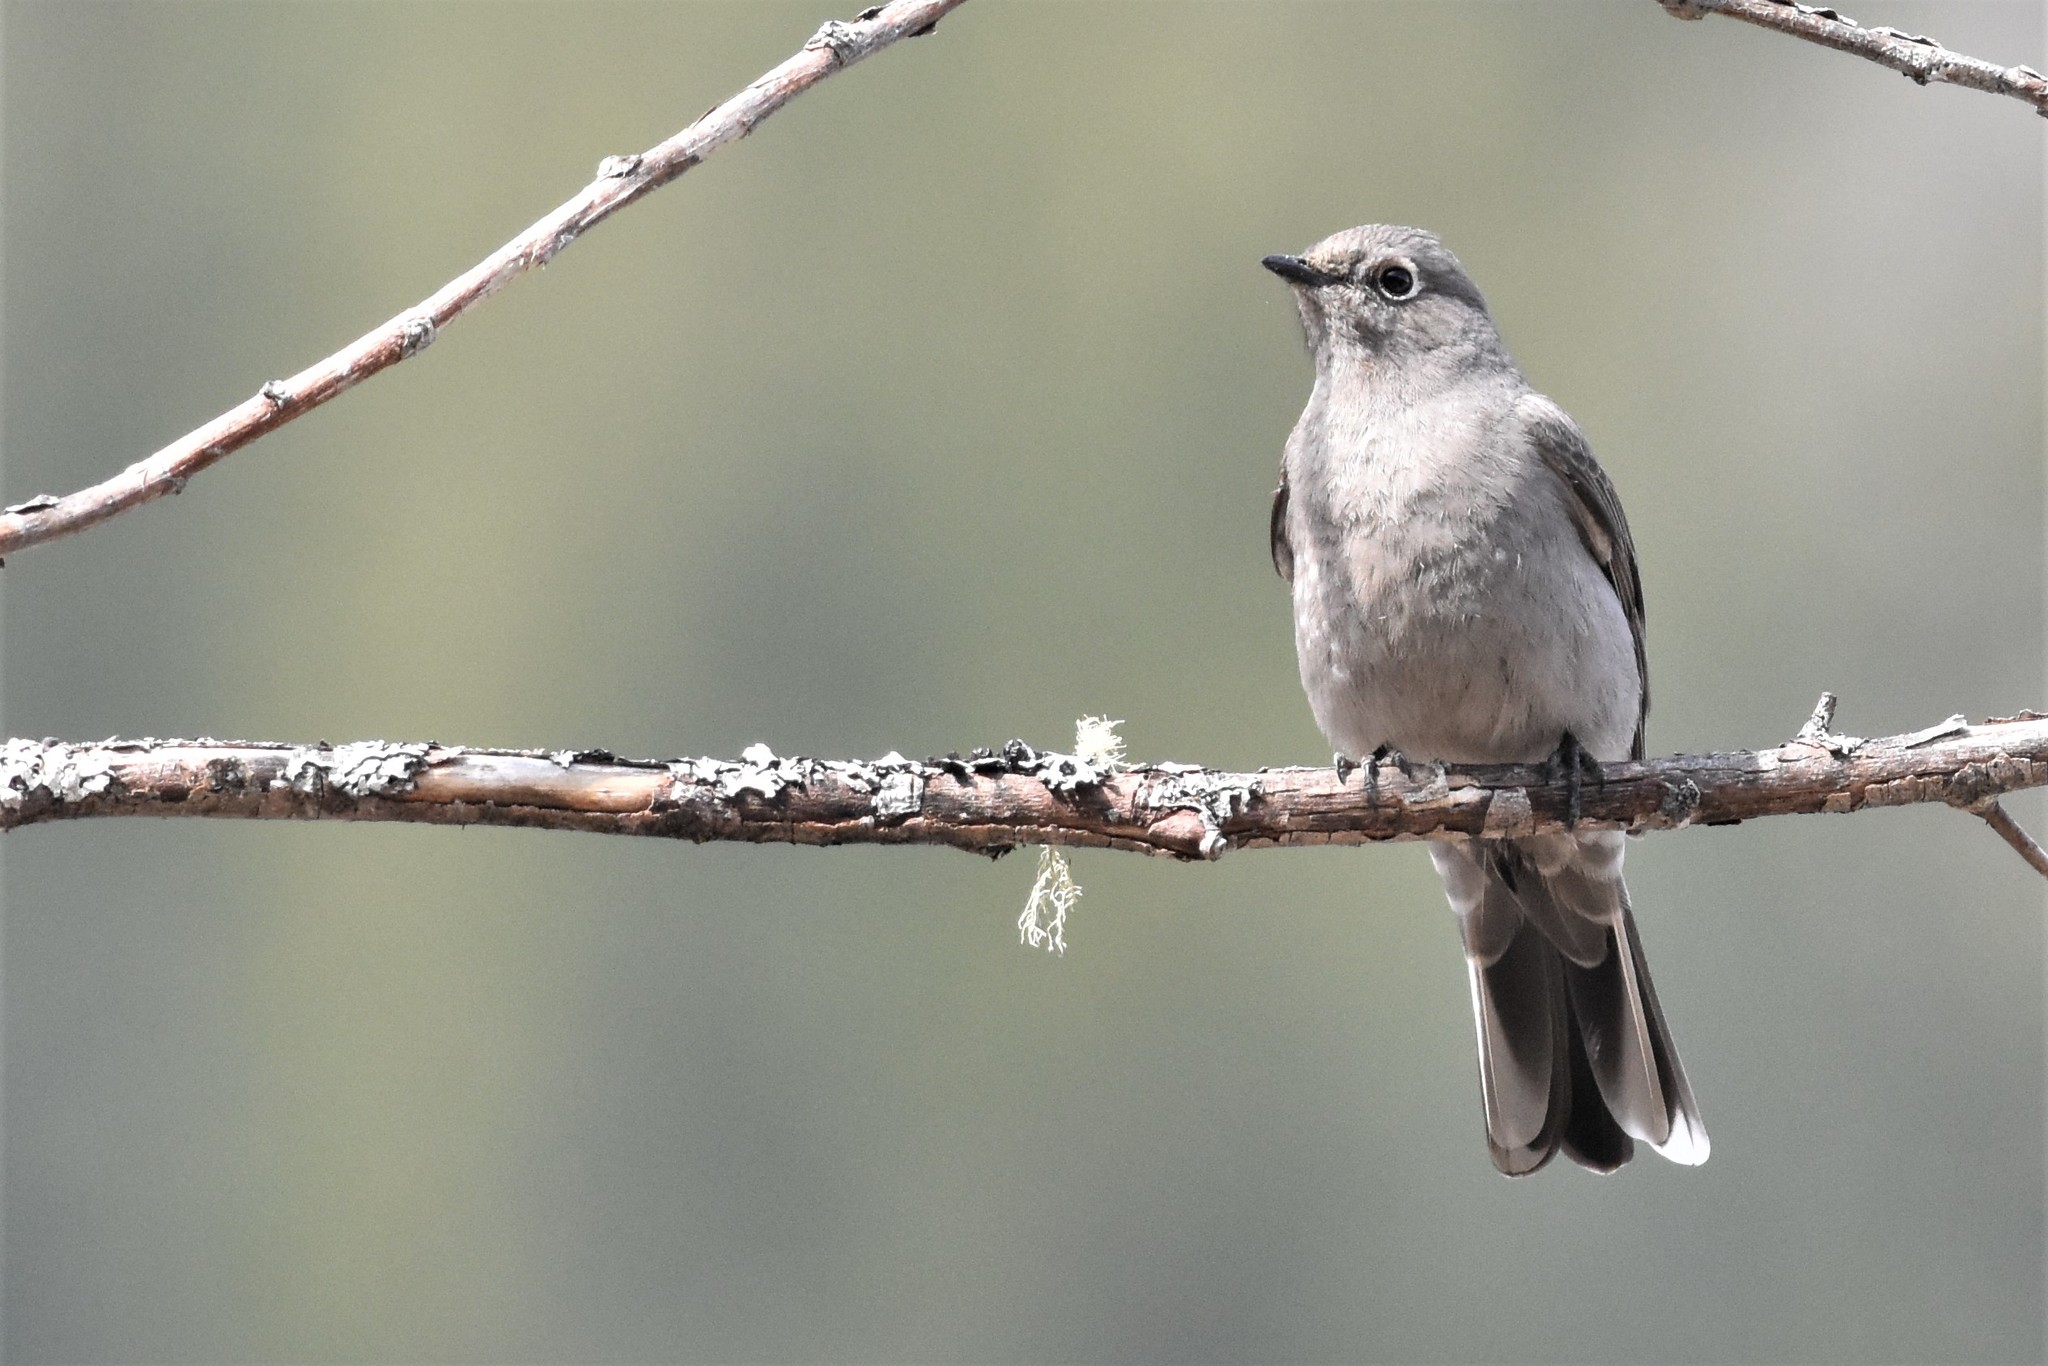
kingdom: Animalia
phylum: Chordata
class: Aves
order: Passeriformes
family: Turdidae
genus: Myadestes
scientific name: Myadestes townsendi
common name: Townsend's solitaire
